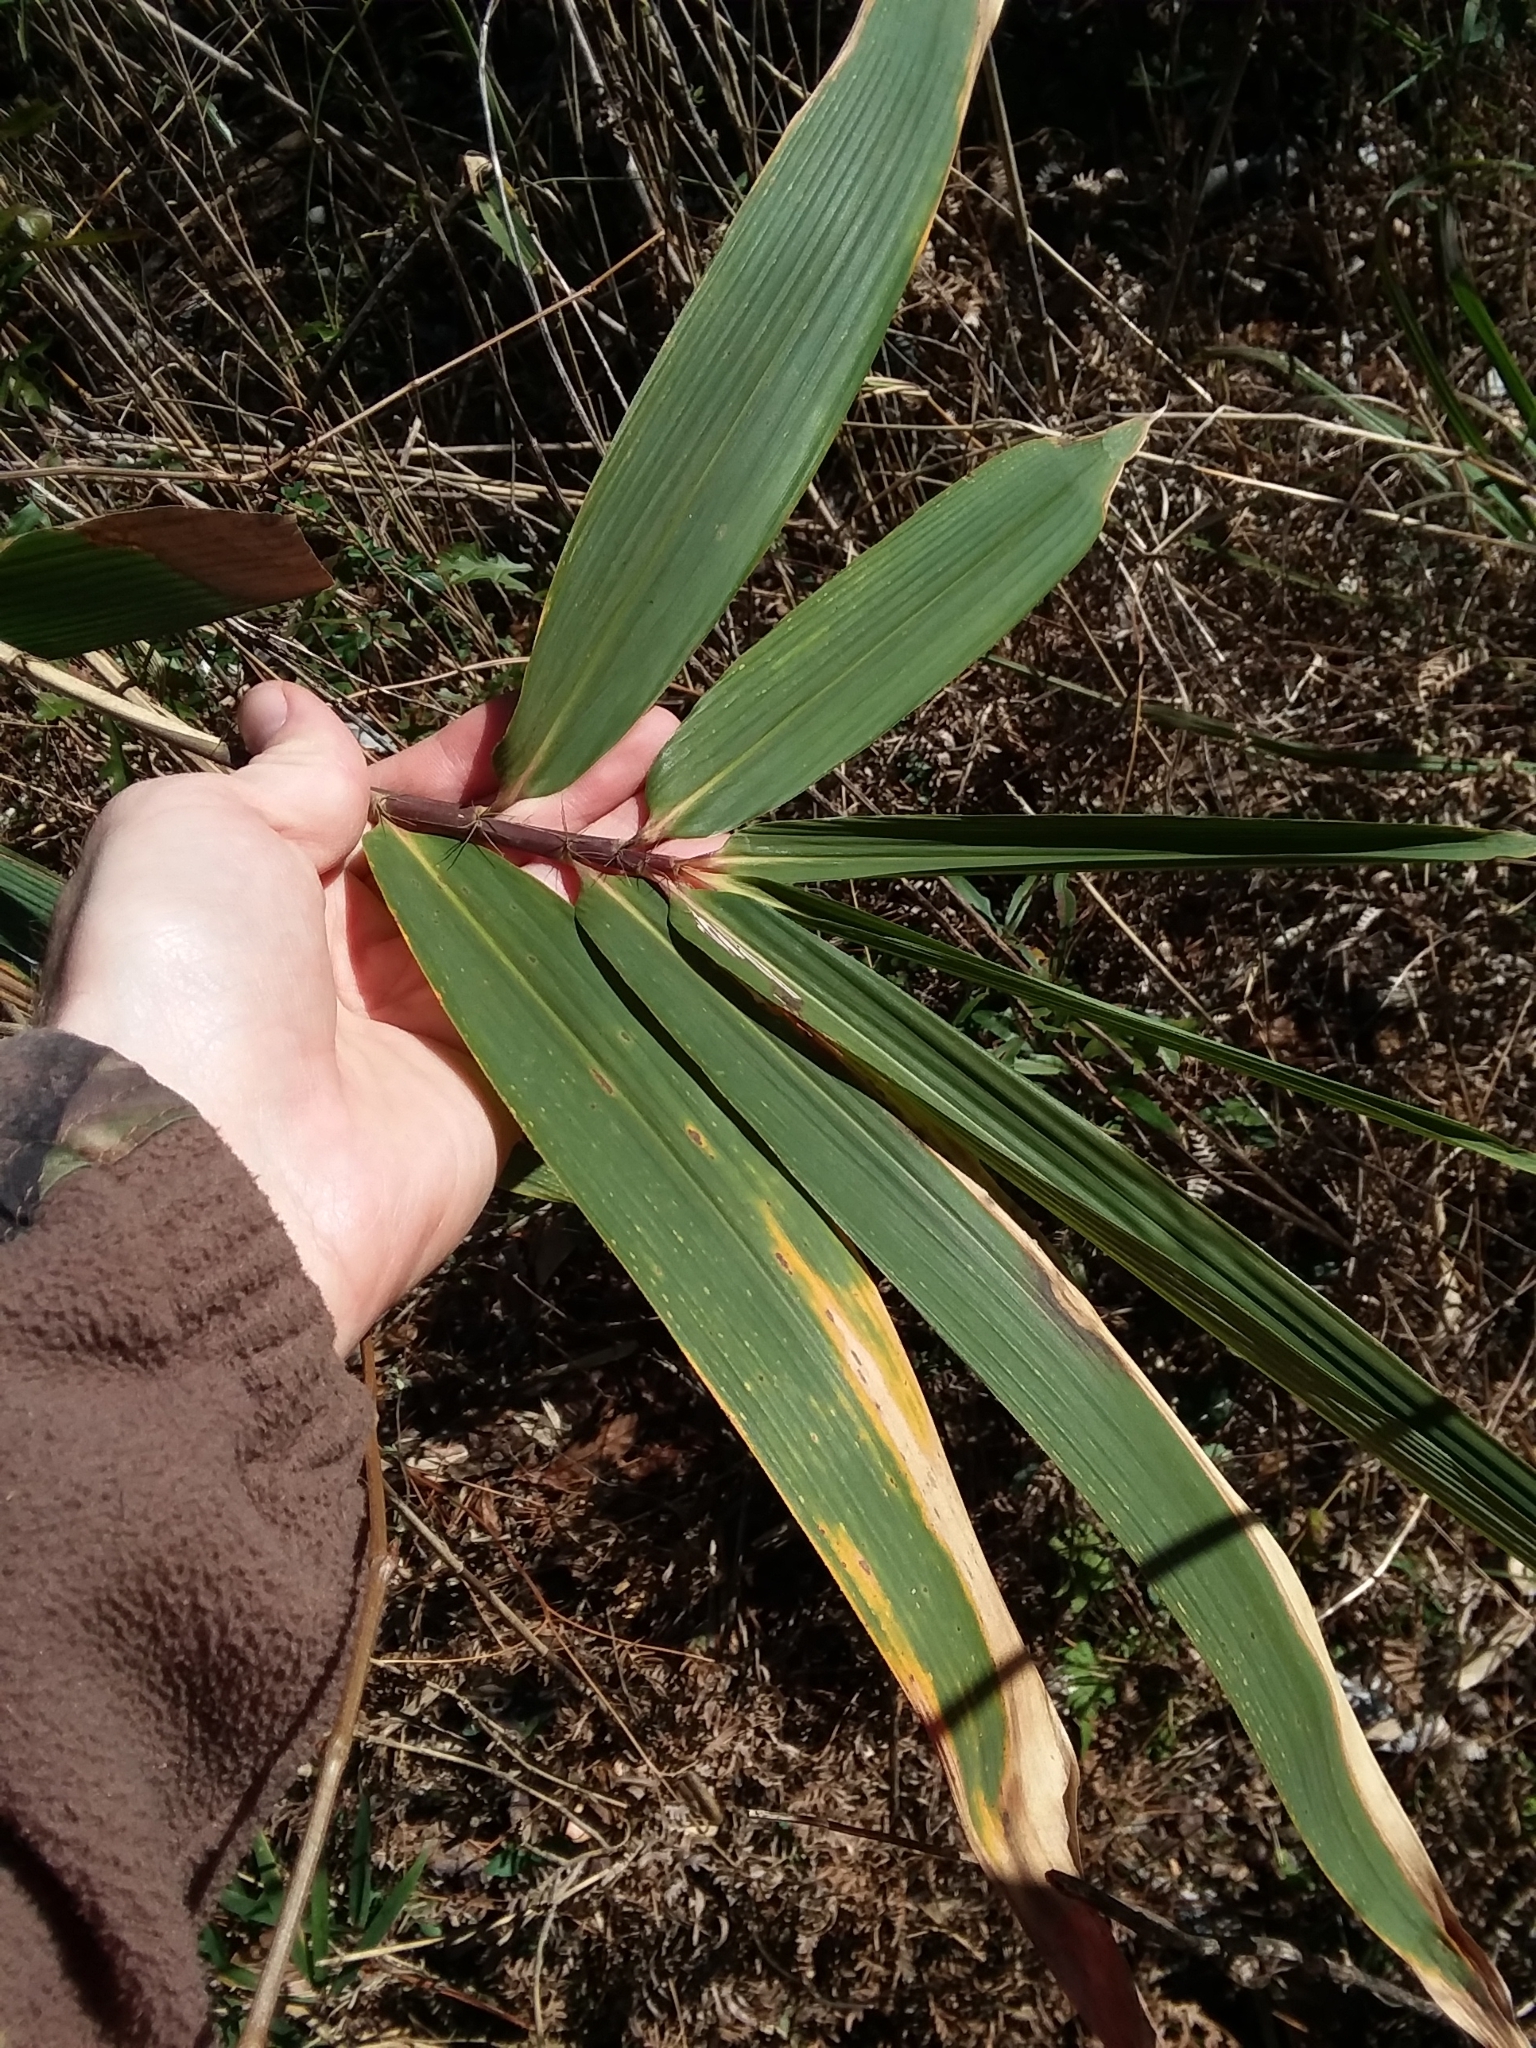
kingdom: Plantae
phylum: Tracheophyta
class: Liliopsida
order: Poales
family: Poaceae
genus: Arundinaria
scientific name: Arundinaria tecta
